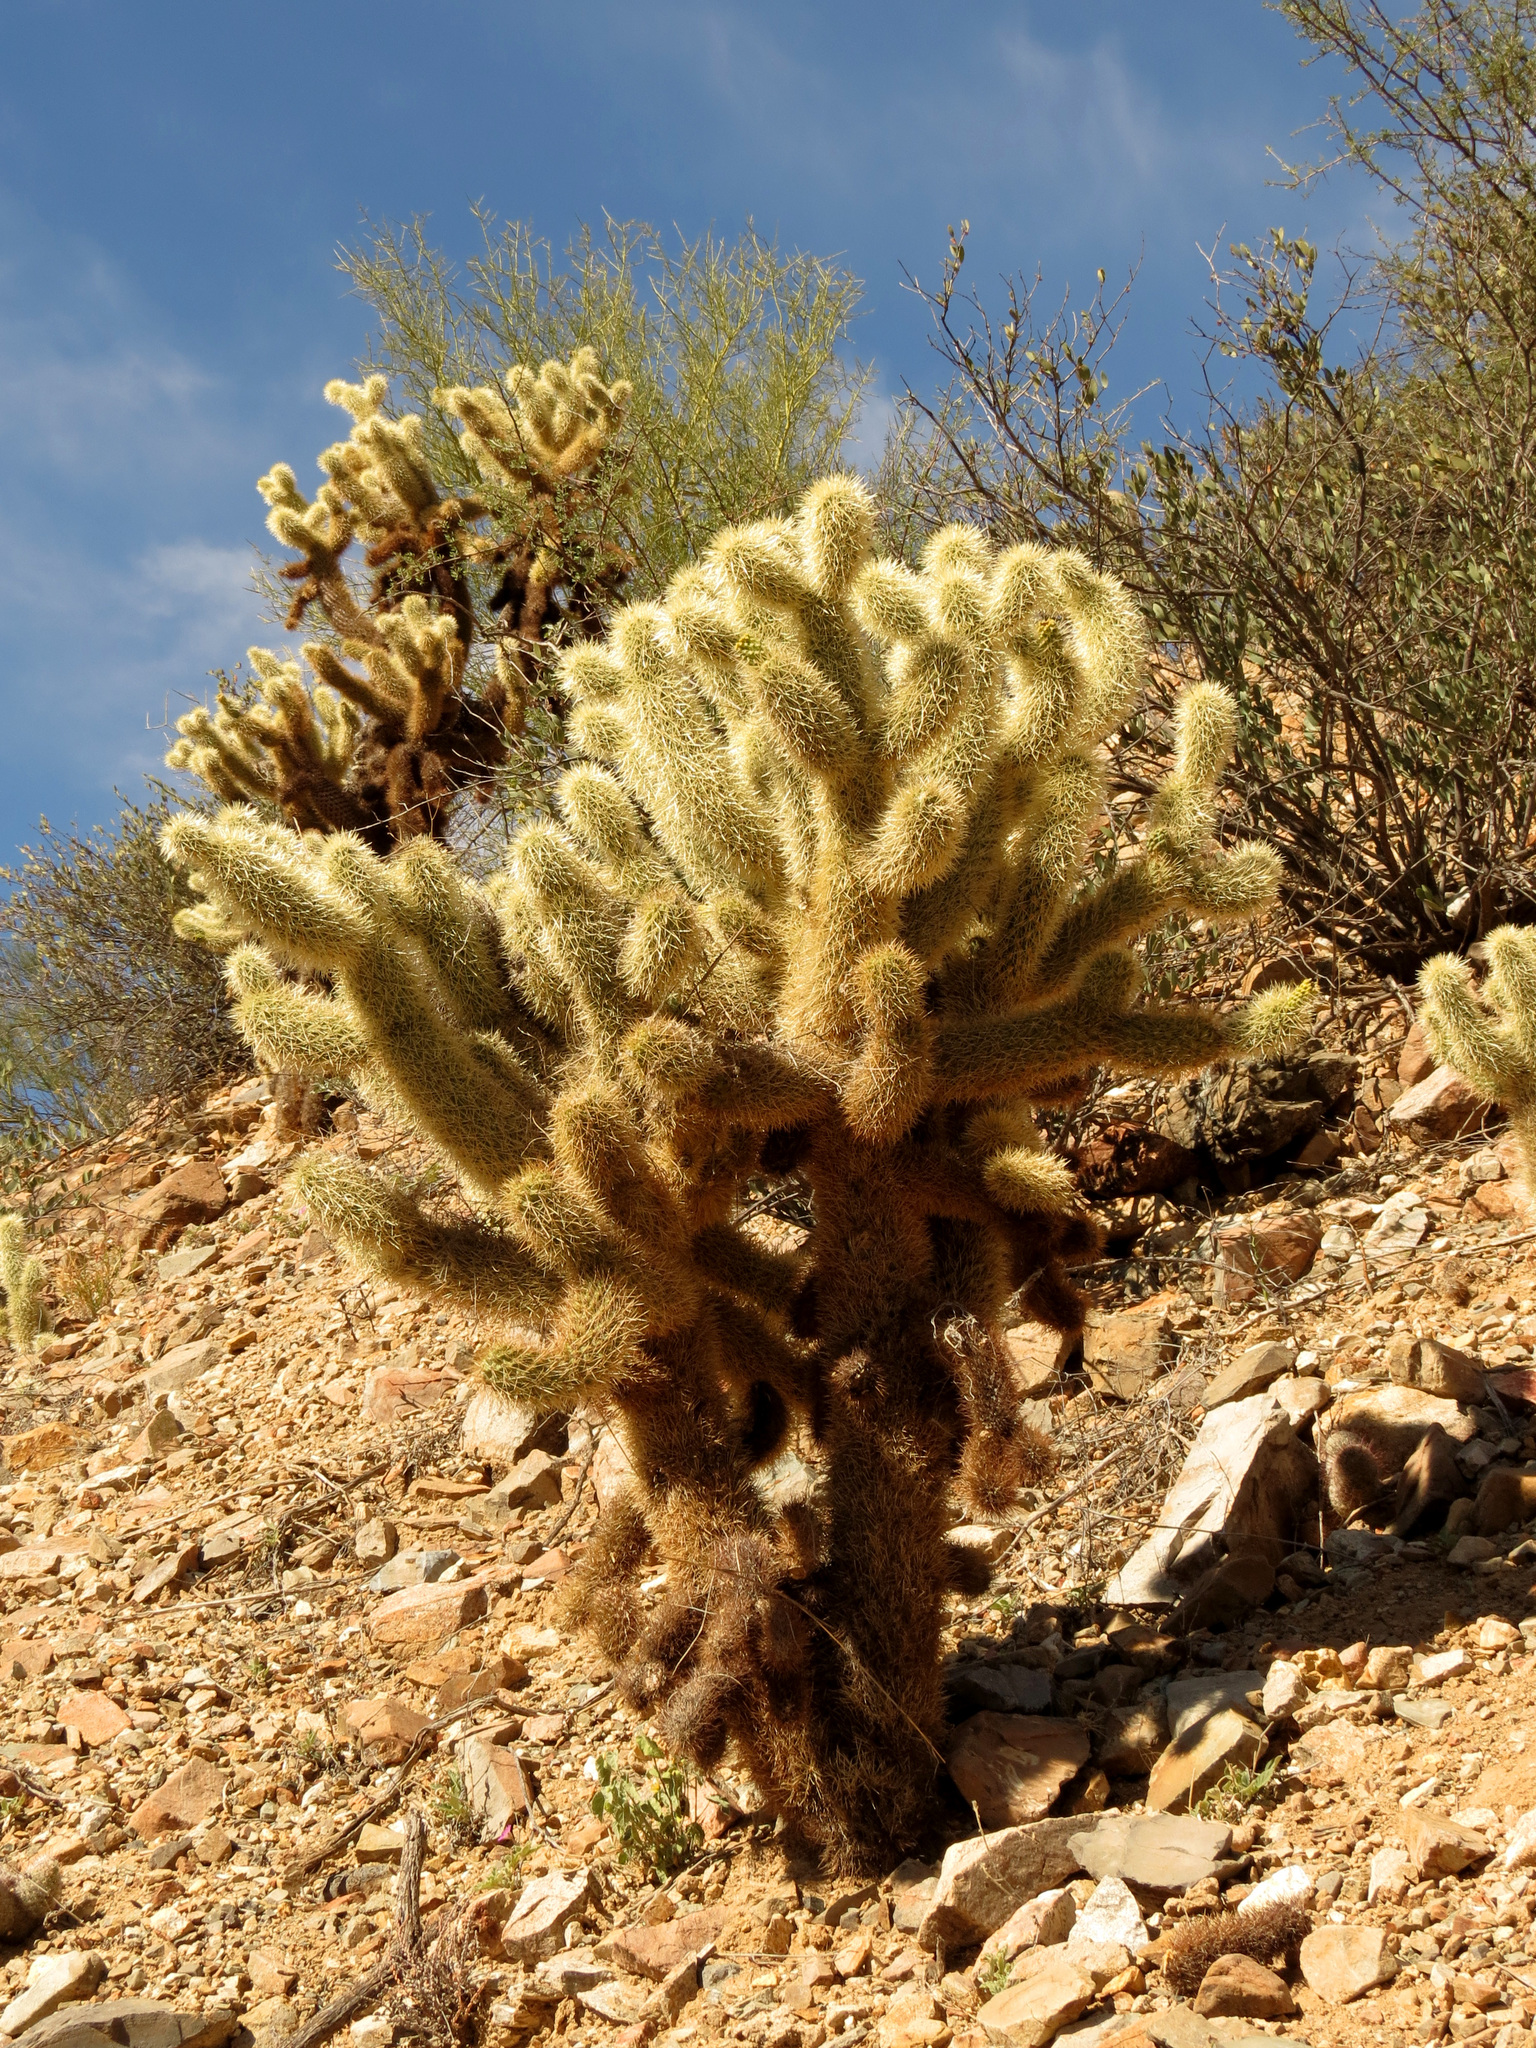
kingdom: Plantae
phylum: Tracheophyta
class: Magnoliopsida
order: Caryophyllales
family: Cactaceae
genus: Cylindropuntia
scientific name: Cylindropuntia fosbergii
